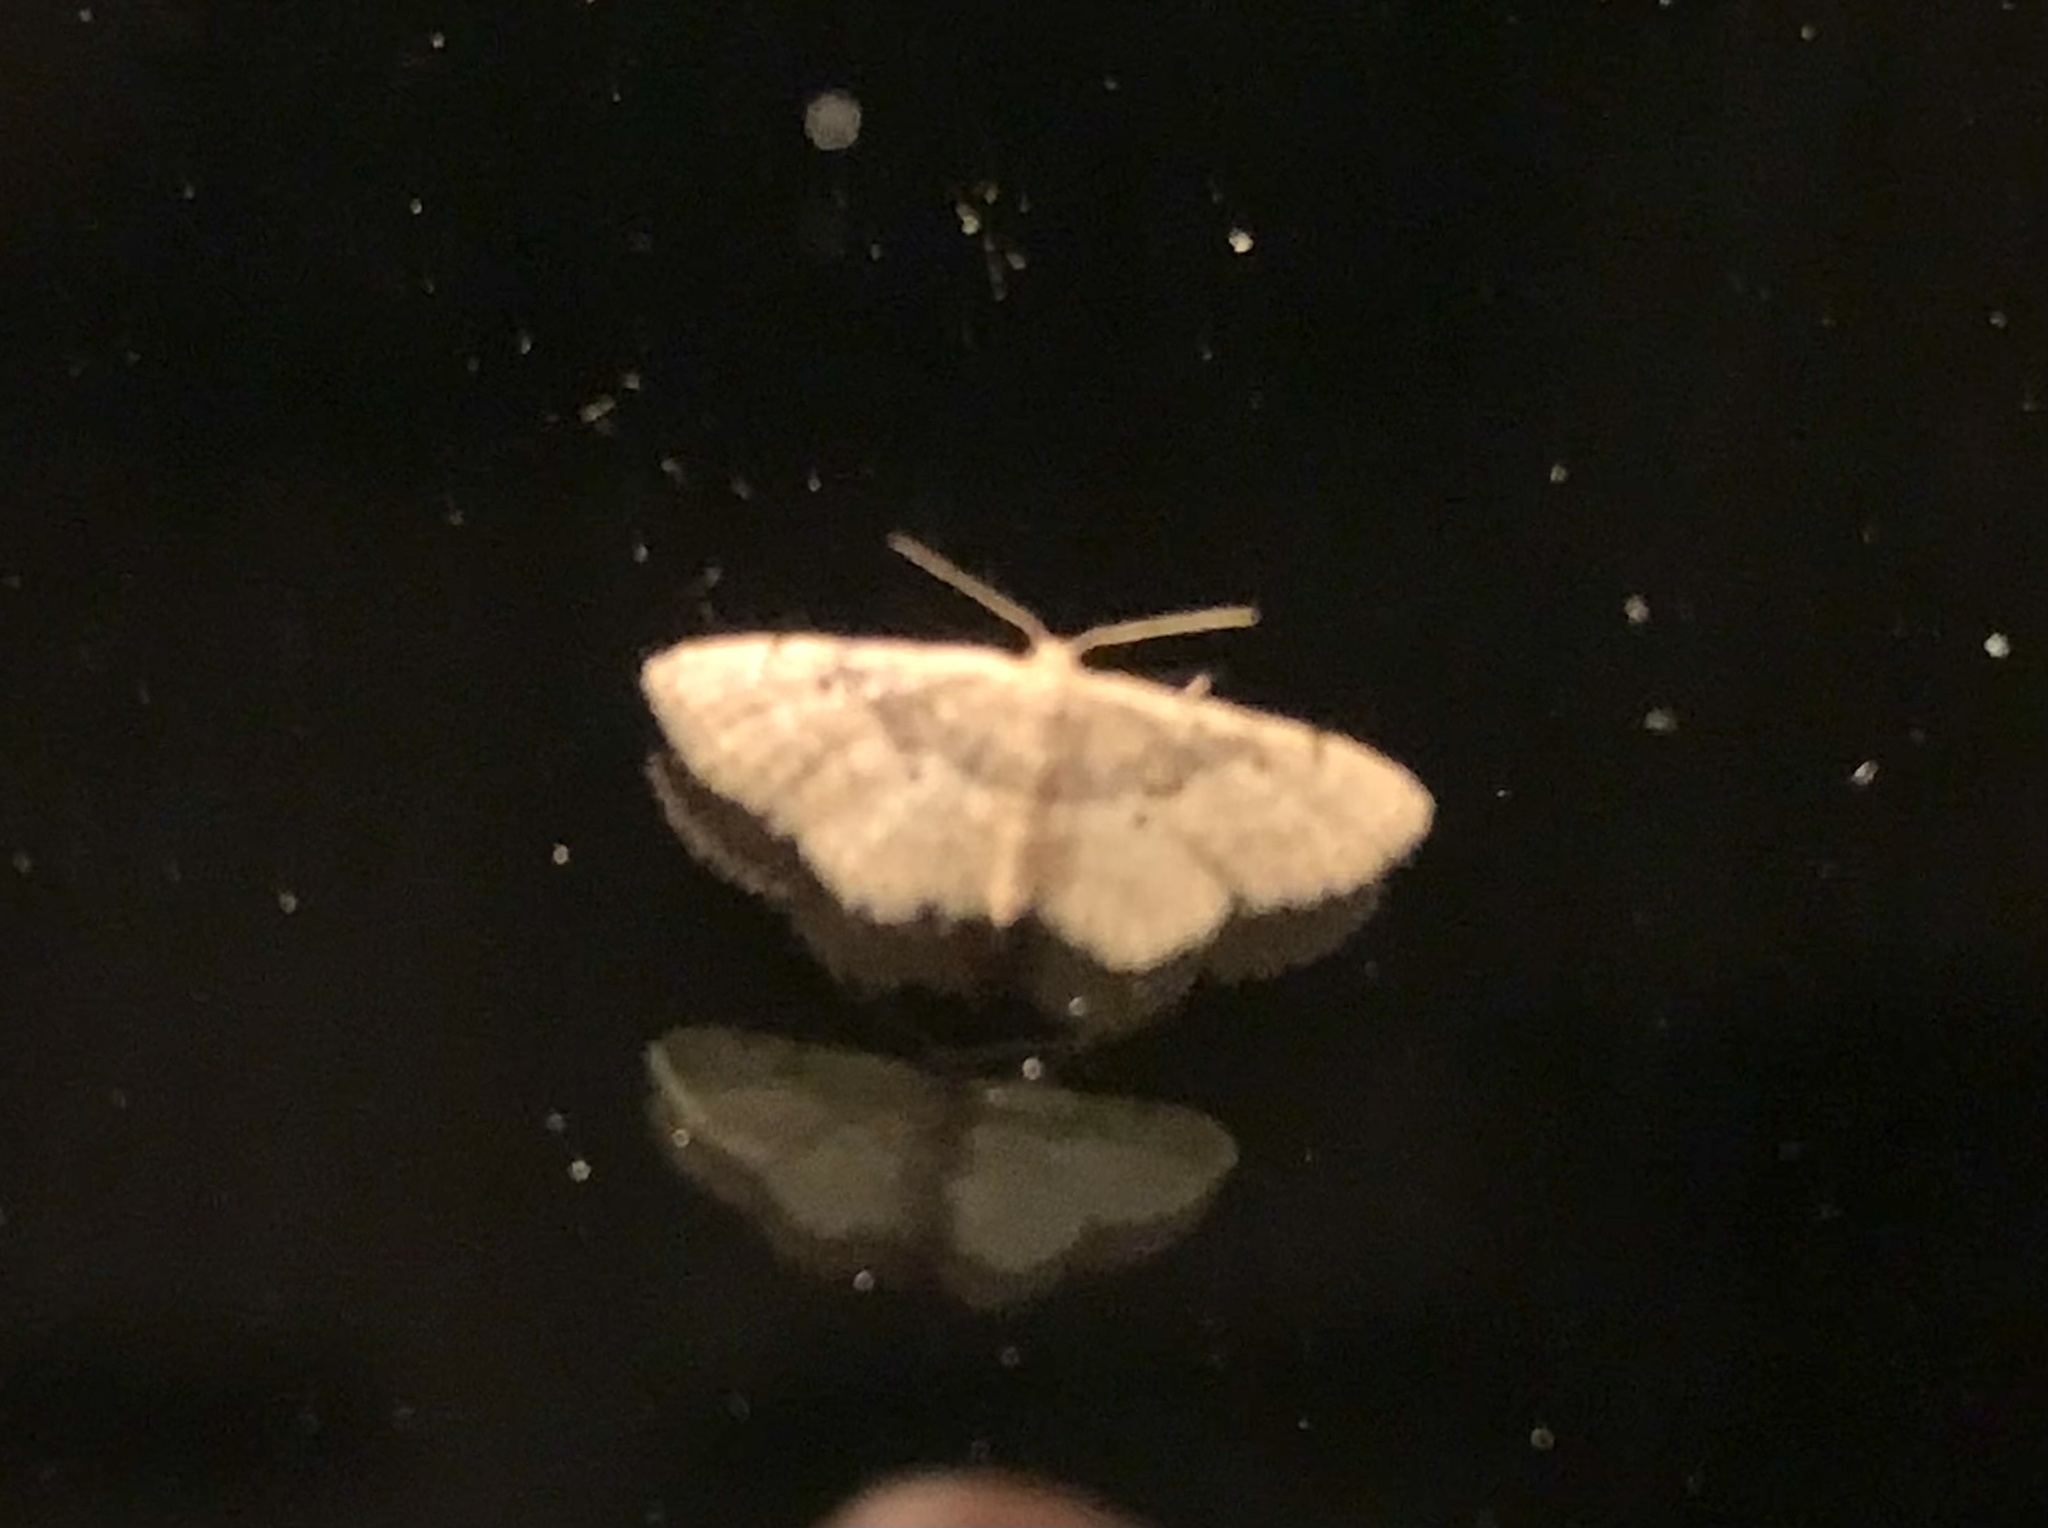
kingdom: Animalia
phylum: Arthropoda
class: Insecta
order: Lepidoptera
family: Geometridae
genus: Idaea
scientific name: Idaea degeneraria
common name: Portland ribbon wave
